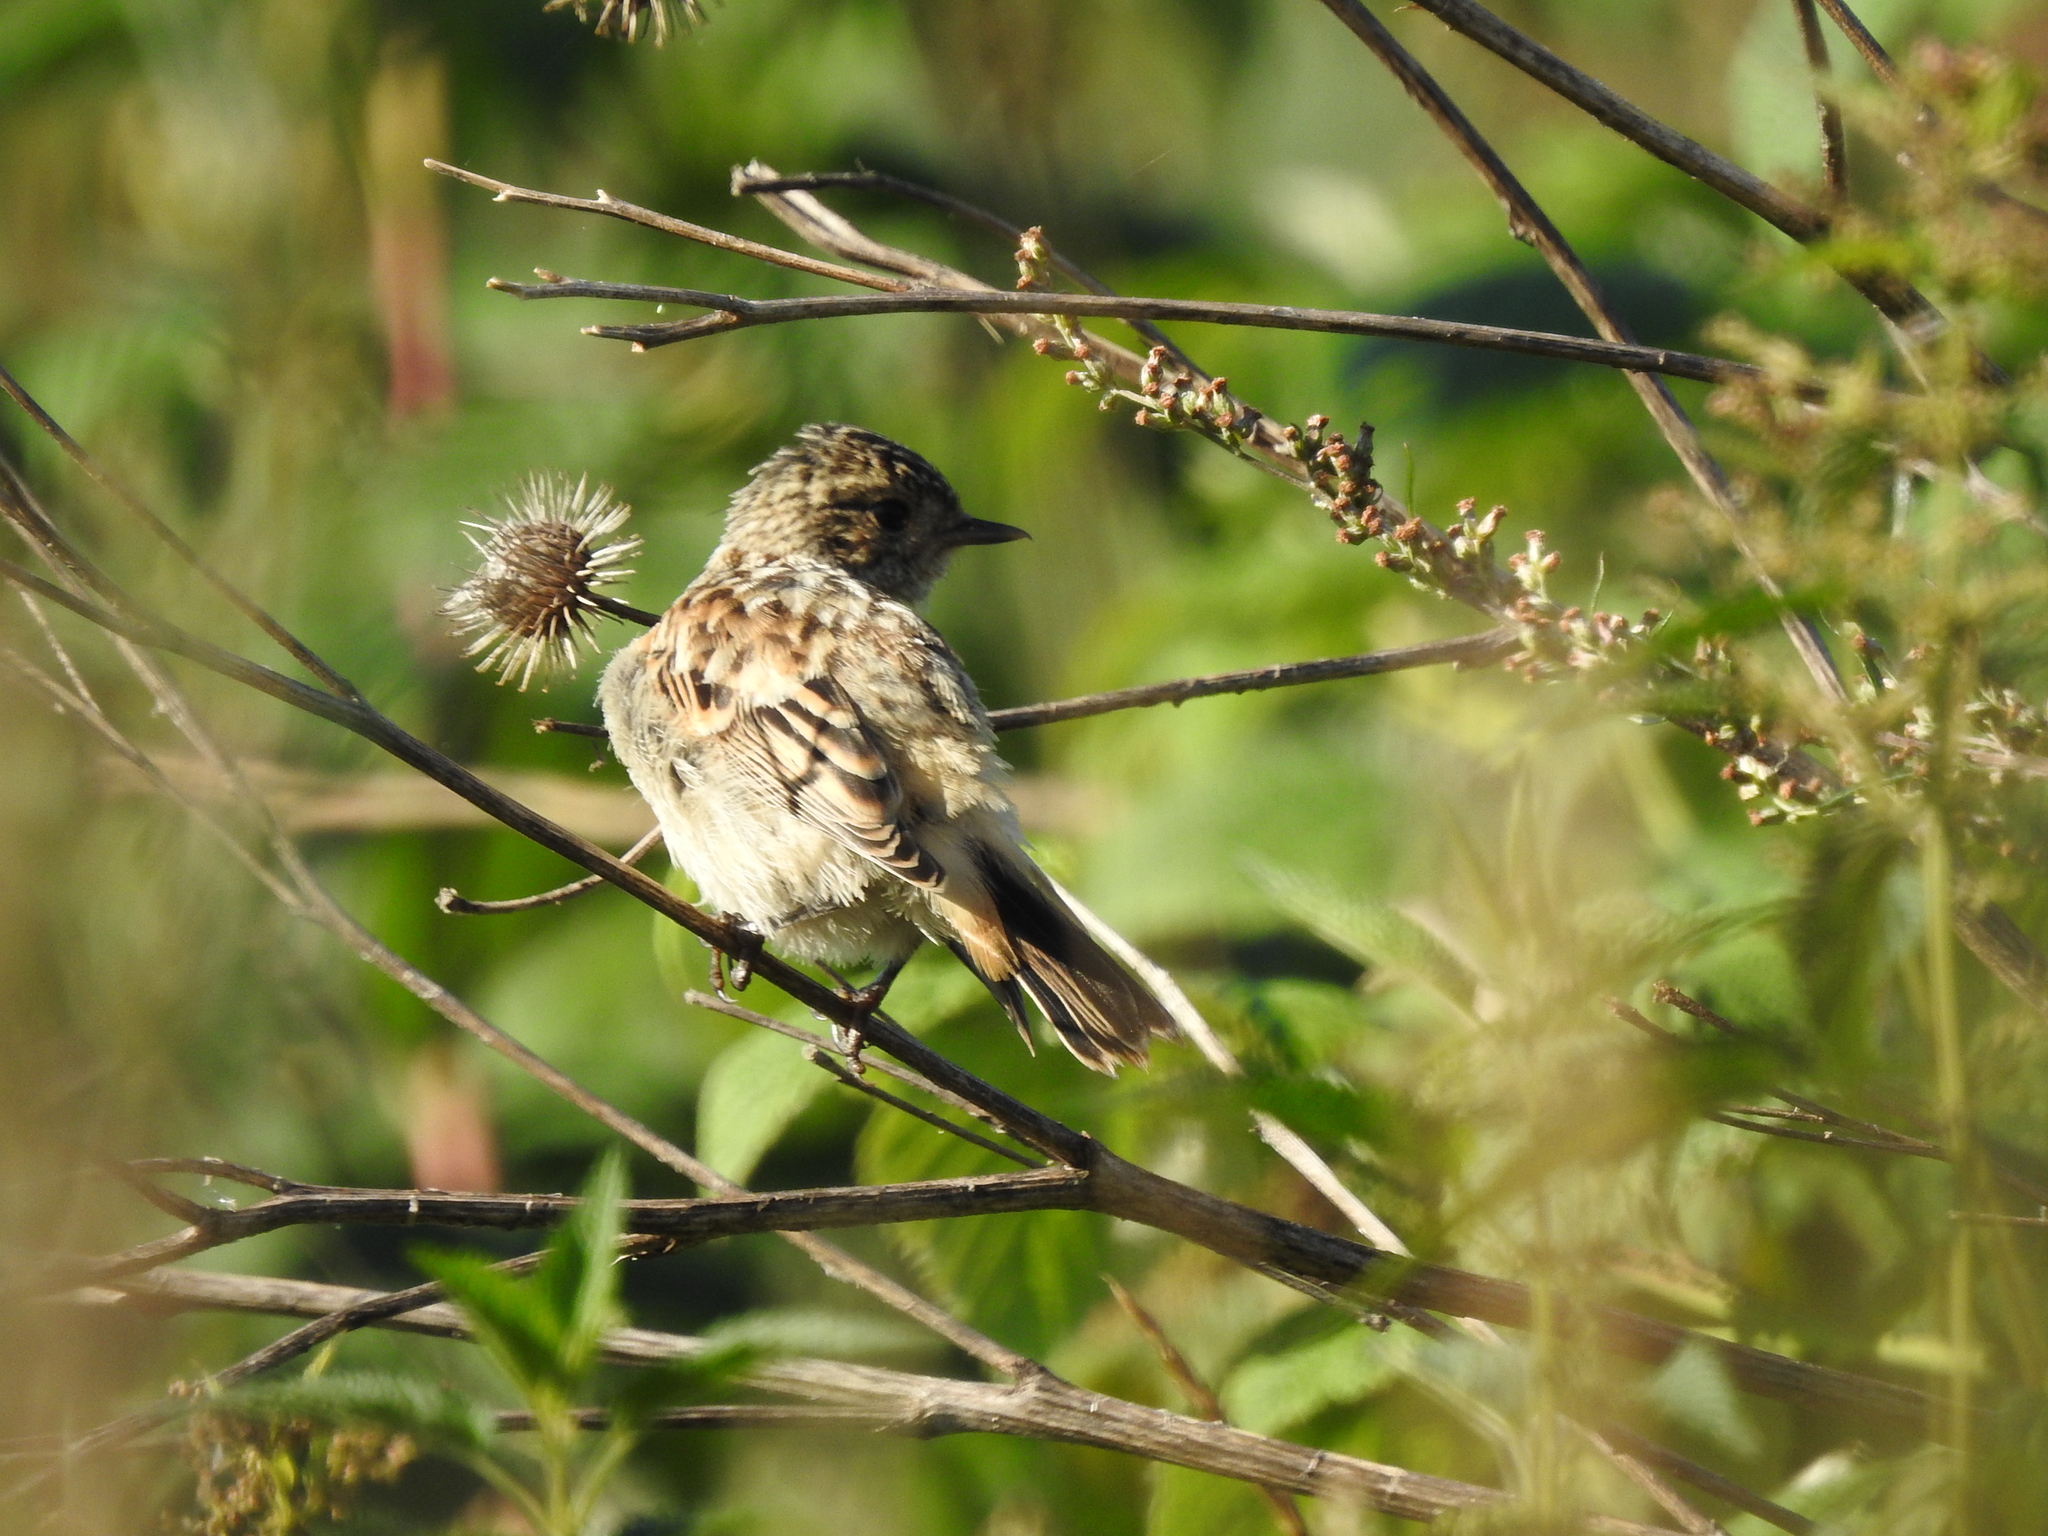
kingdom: Animalia
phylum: Chordata
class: Aves
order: Passeriformes
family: Muscicapidae
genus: Saxicola
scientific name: Saxicola maurus
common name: Siberian stonechat
